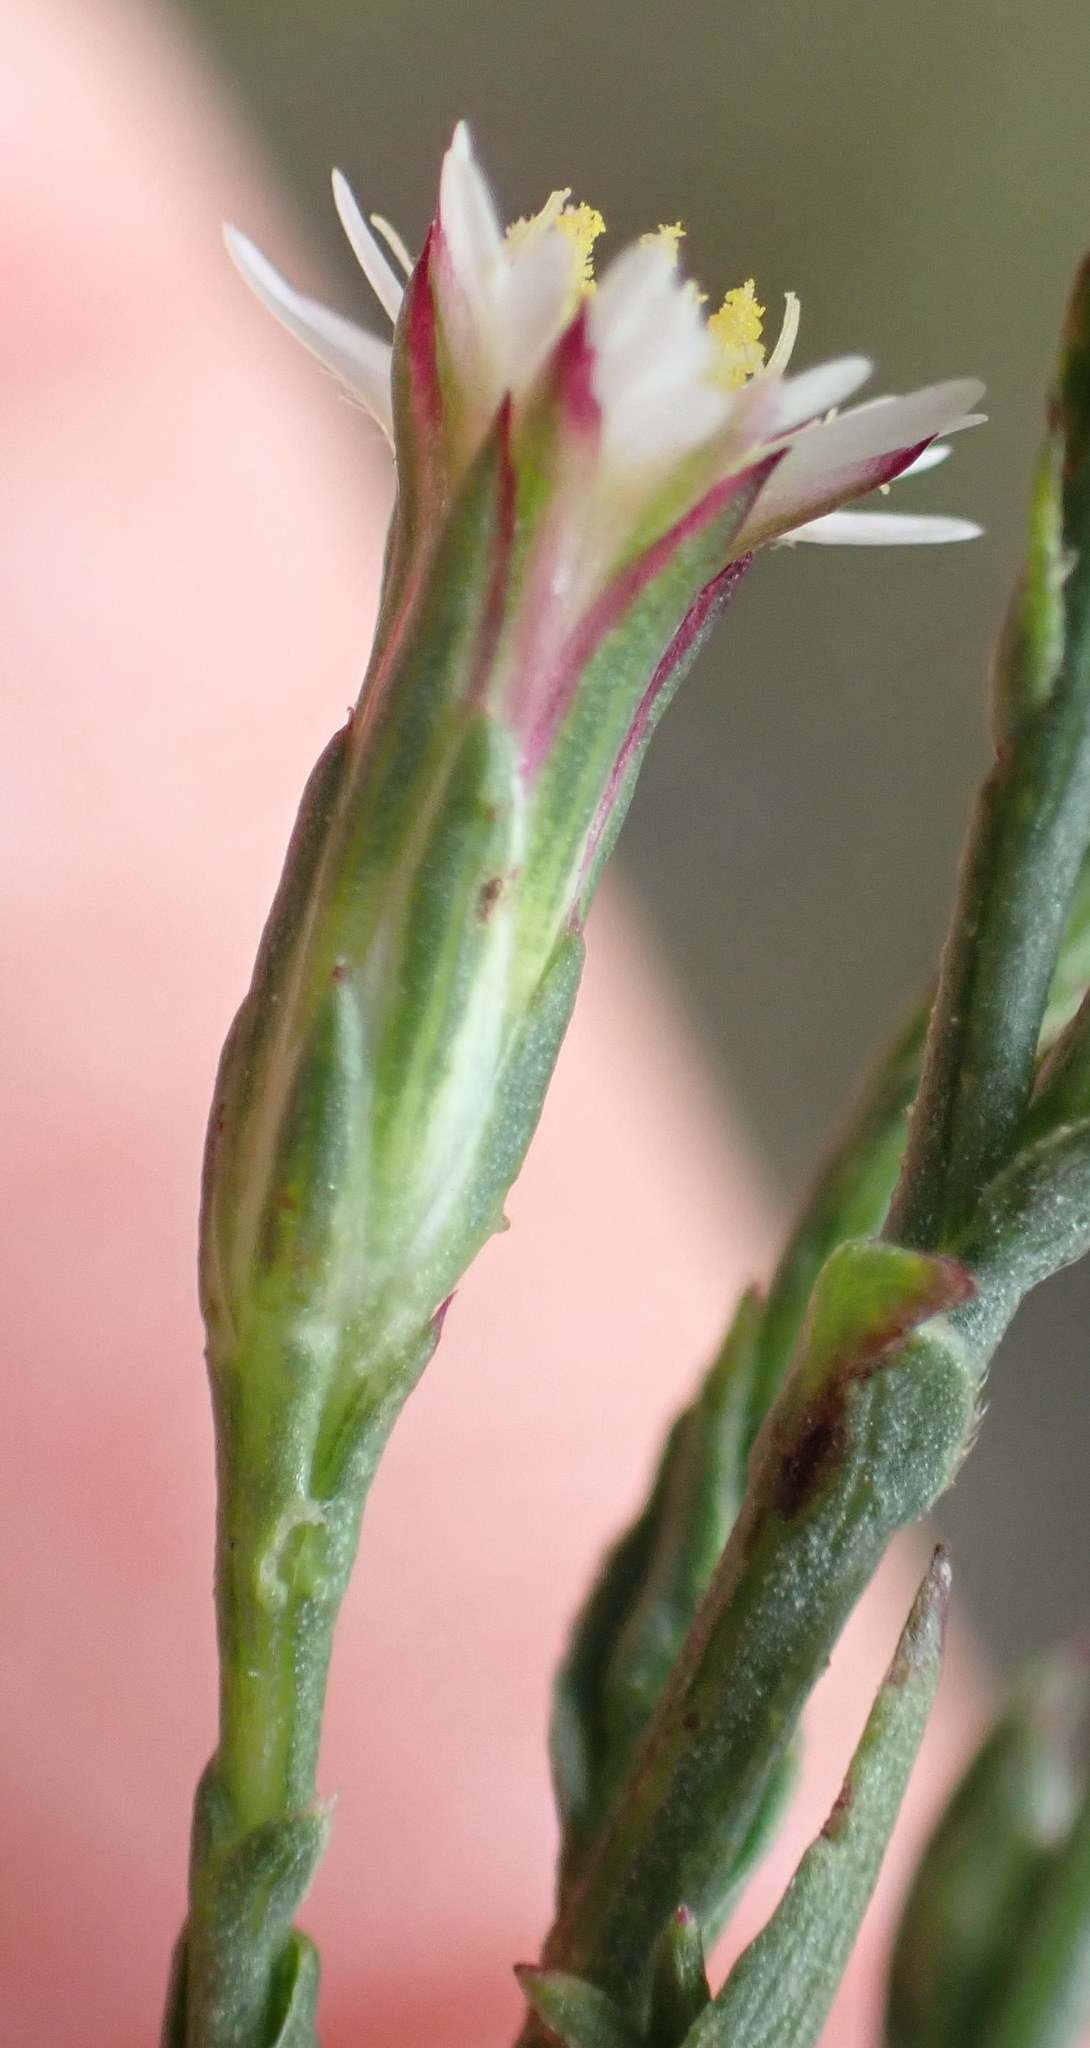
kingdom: Plantae
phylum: Tracheophyta
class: Magnoliopsida
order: Asterales
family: Asteraceae
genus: Symphyotrichum
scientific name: Symphyotrichum squamatum
